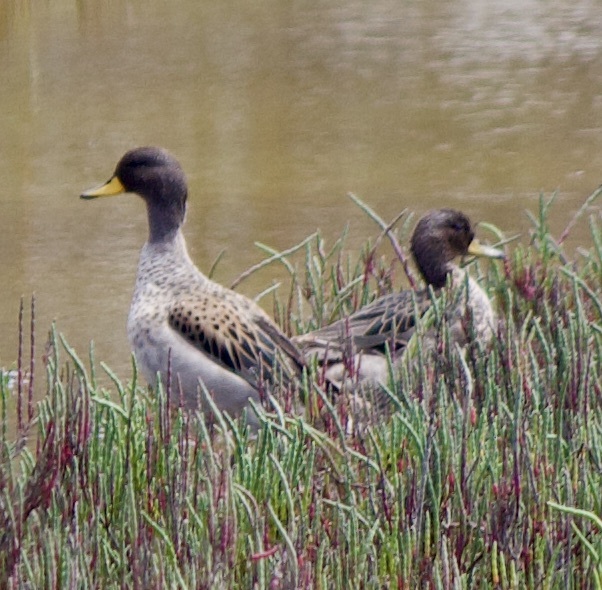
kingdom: Animalia
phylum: Chordata
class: Aves
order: Anseriformes
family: Anatidae
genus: Anas
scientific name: Anas flavirostris
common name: Yellow-billed teal
